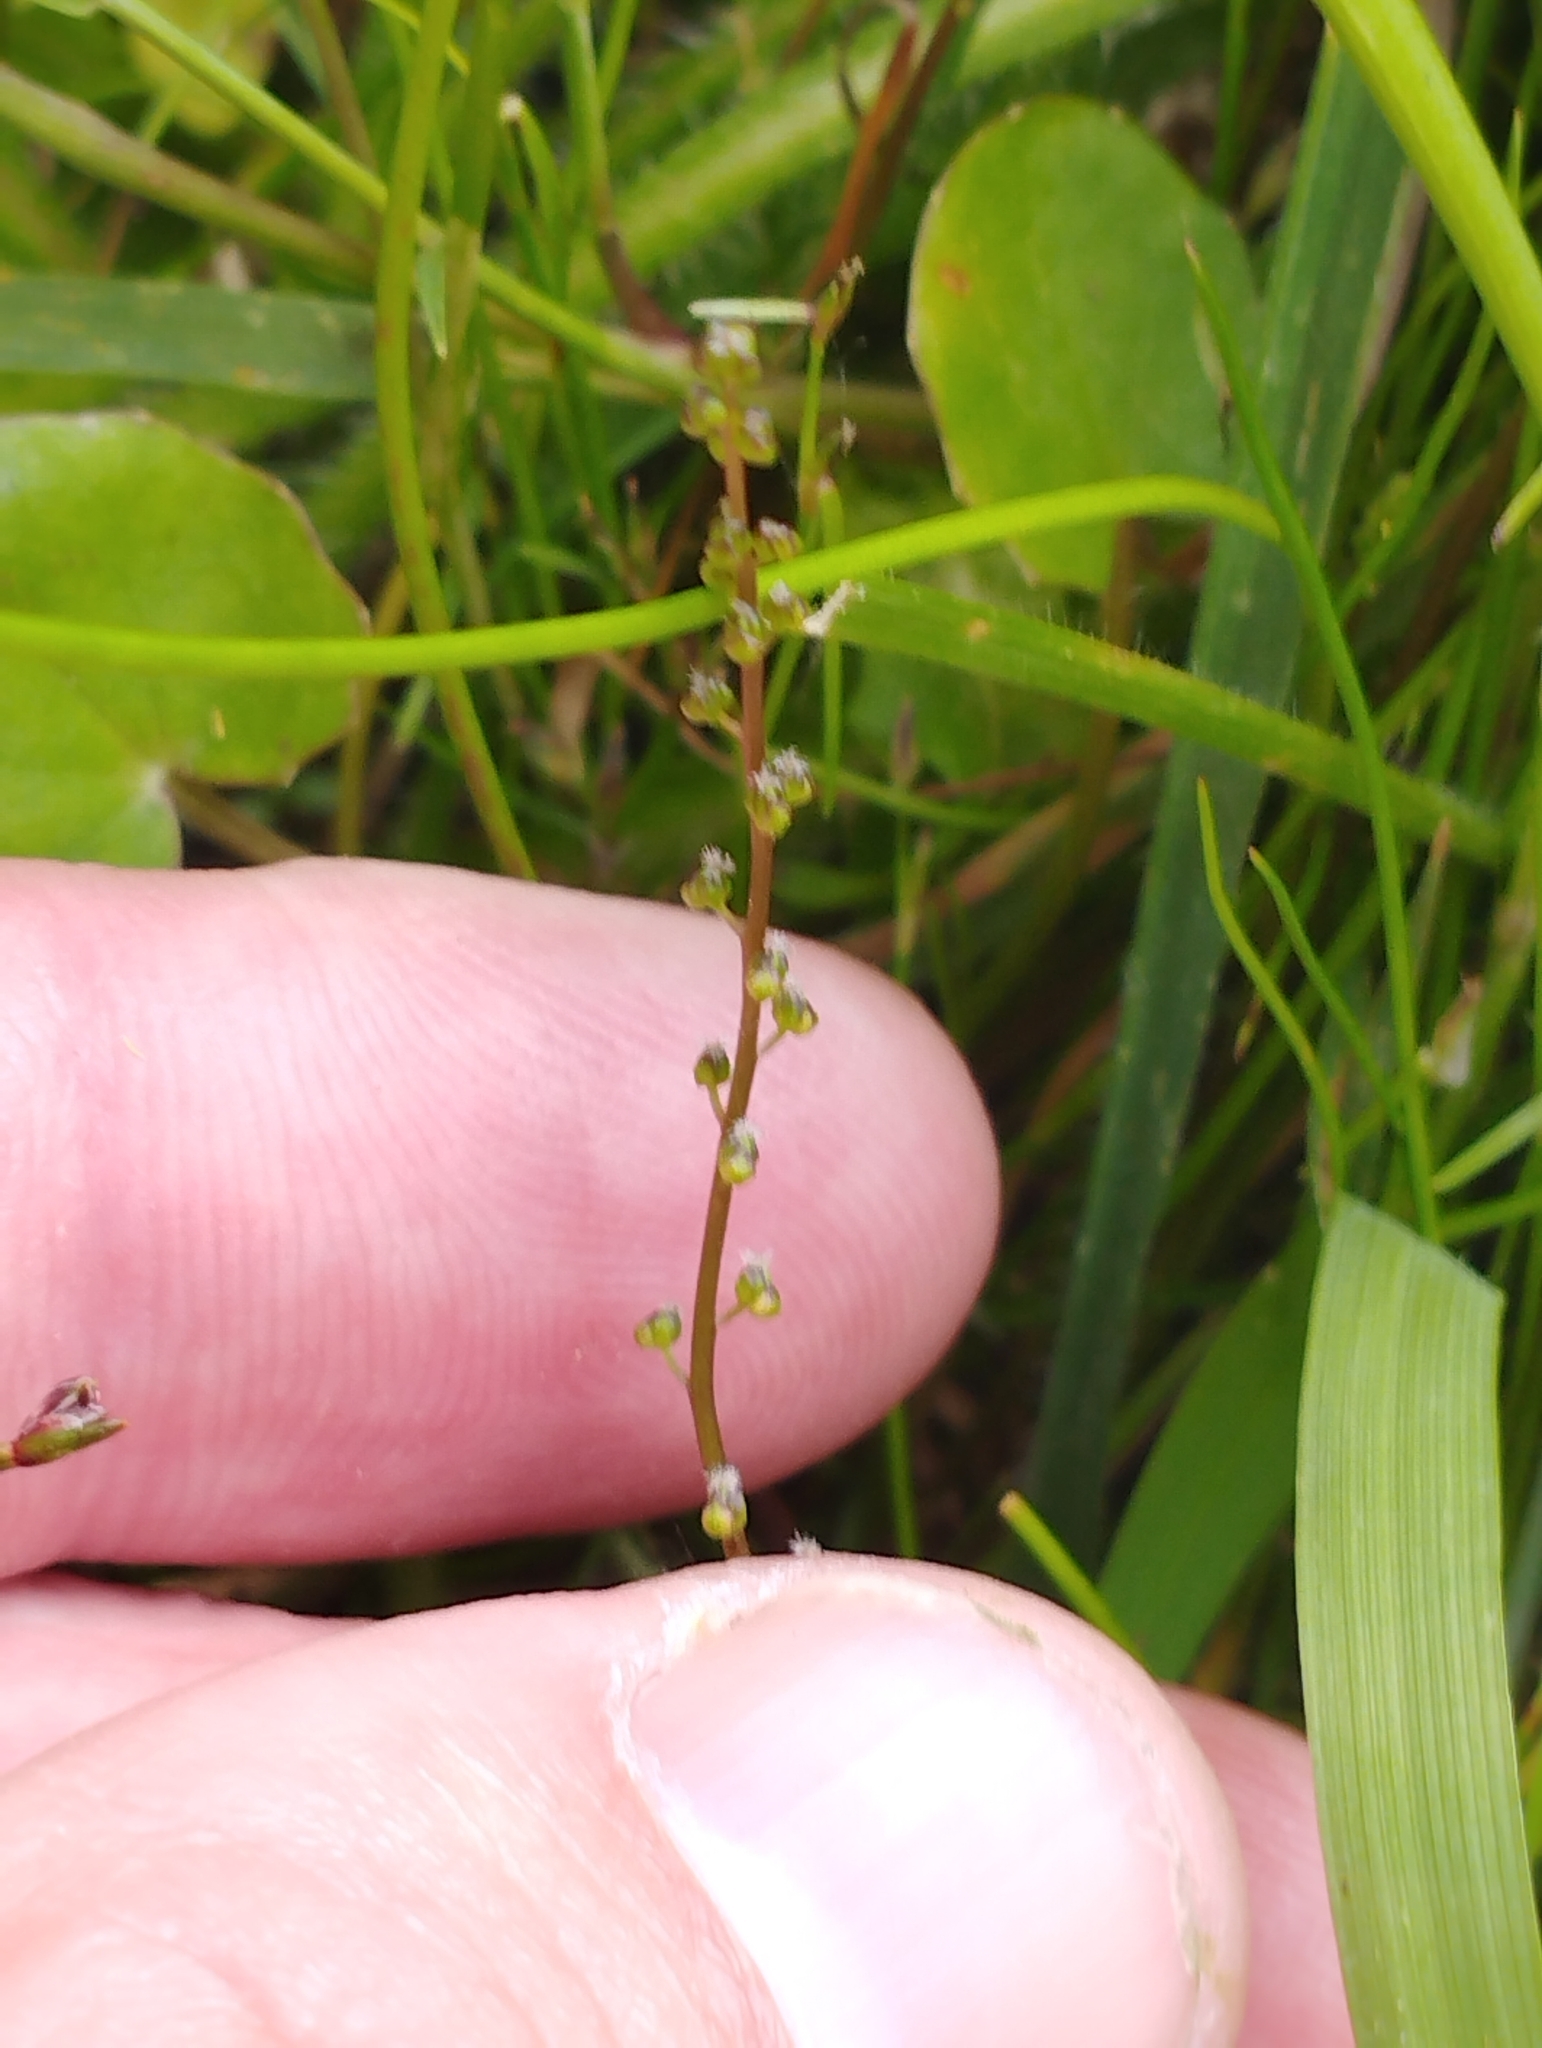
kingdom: Plantae
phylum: Tracheophyta
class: Liliopsida
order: Alismatales
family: Juncaginaceae
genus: Triglochin
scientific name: Triglochin striata
